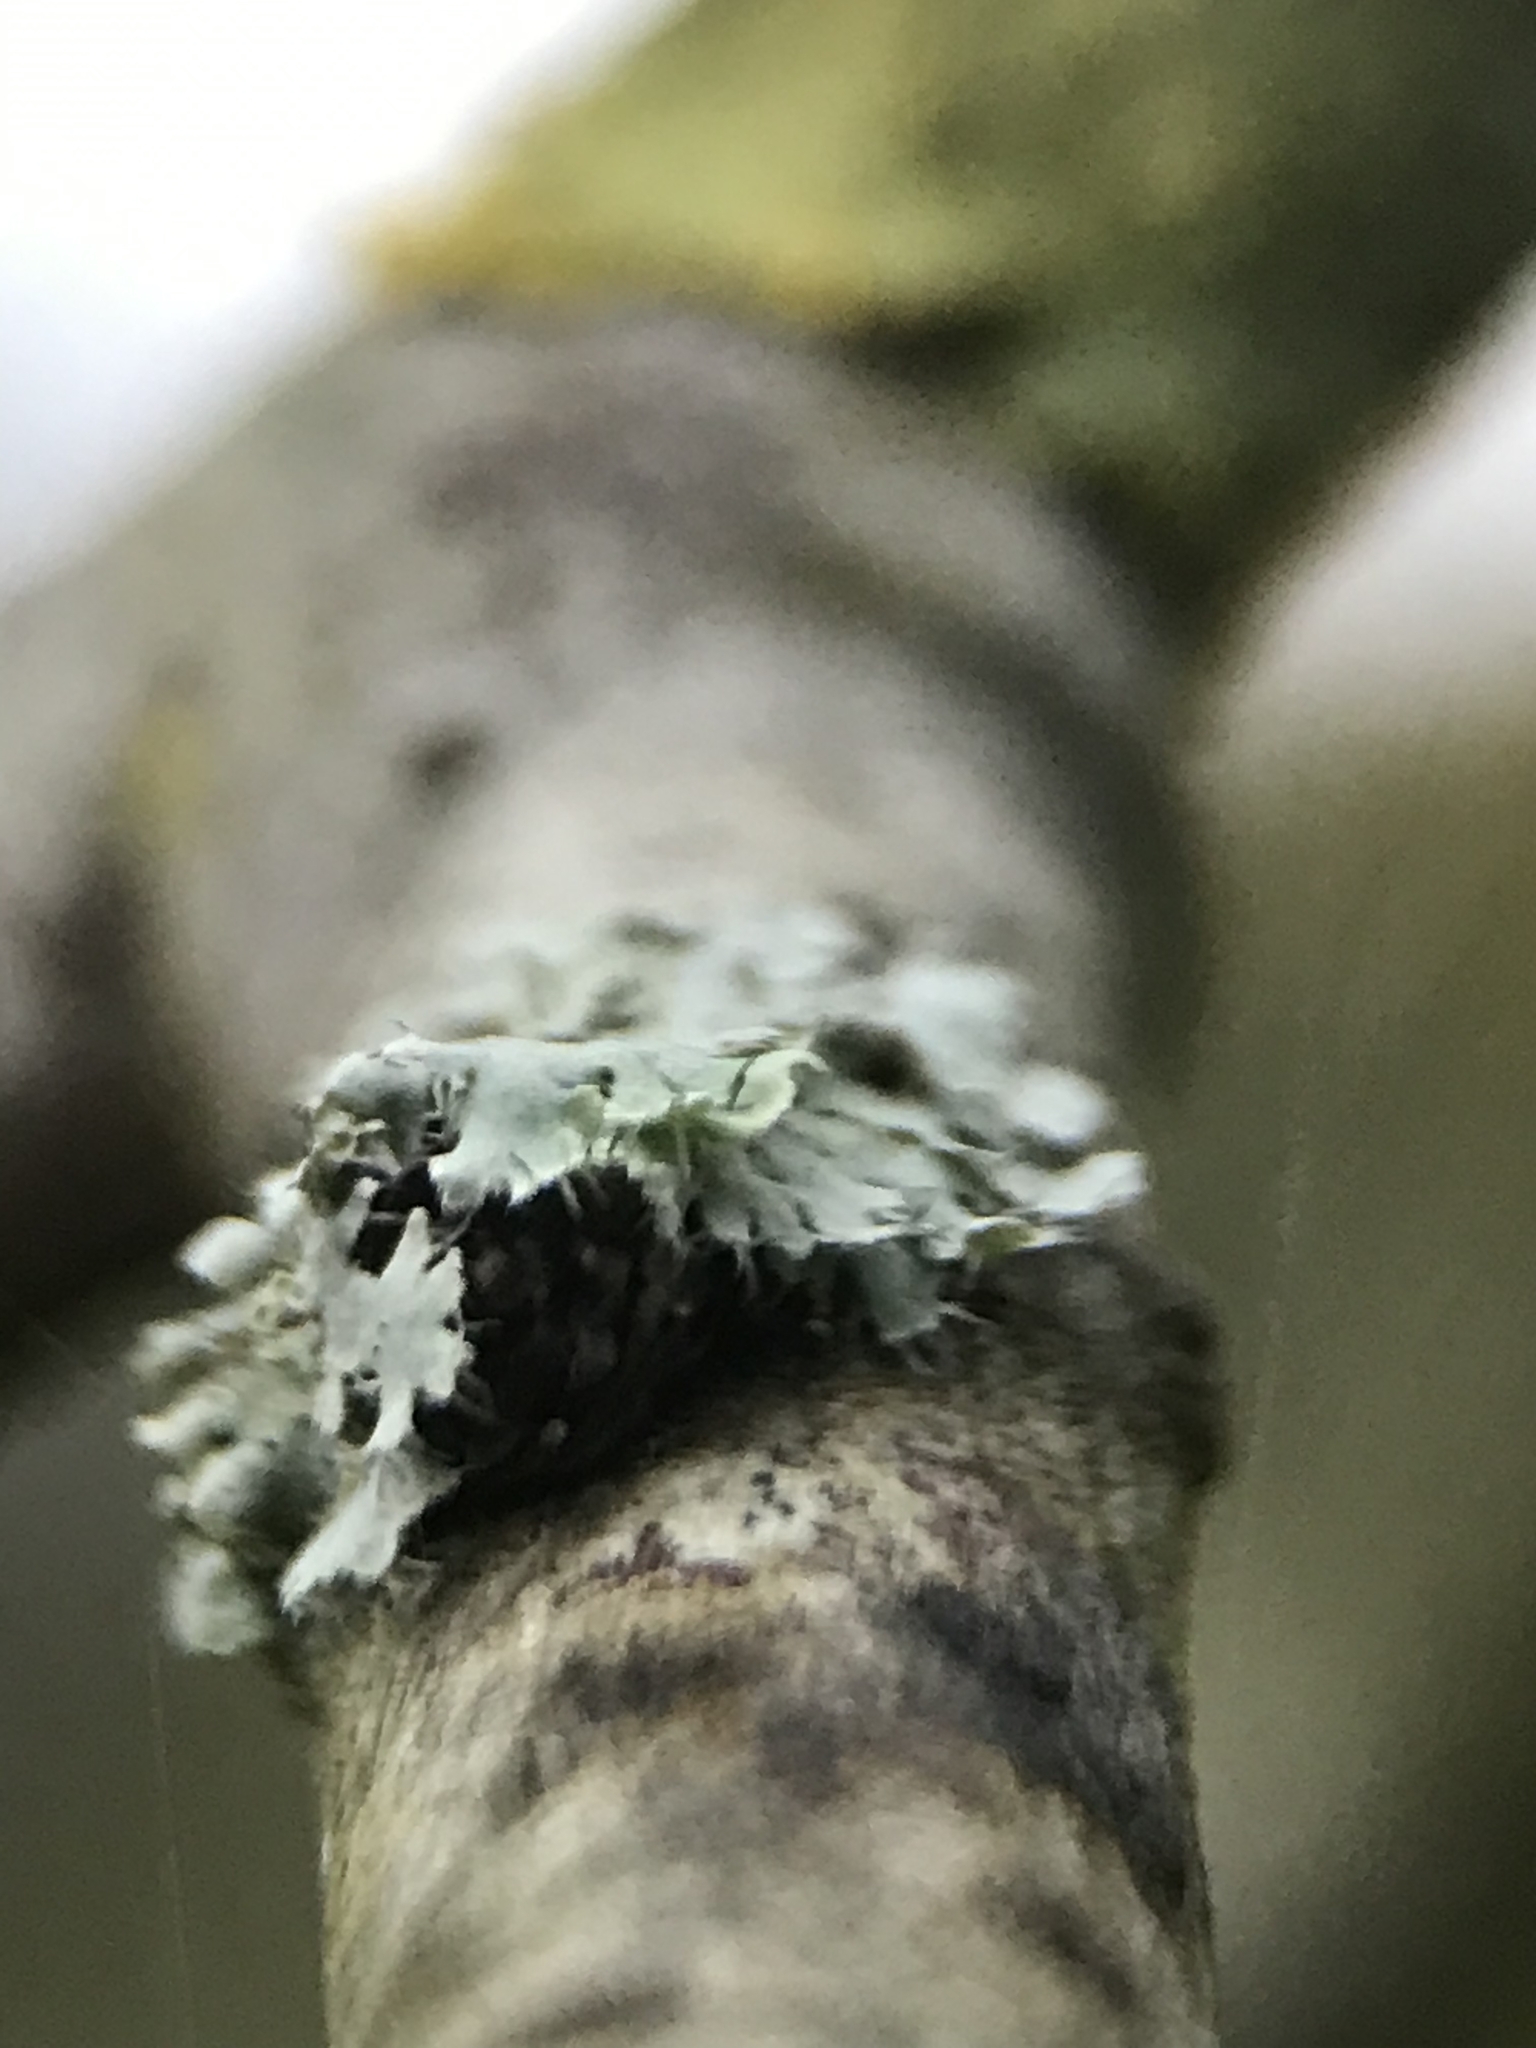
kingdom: Fungi
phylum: Ascomycota
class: Lecanoromycetes
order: Caliciales
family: Physciaceae
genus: Physcia
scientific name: Physcia adscendens
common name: Hooded rosette lichen
